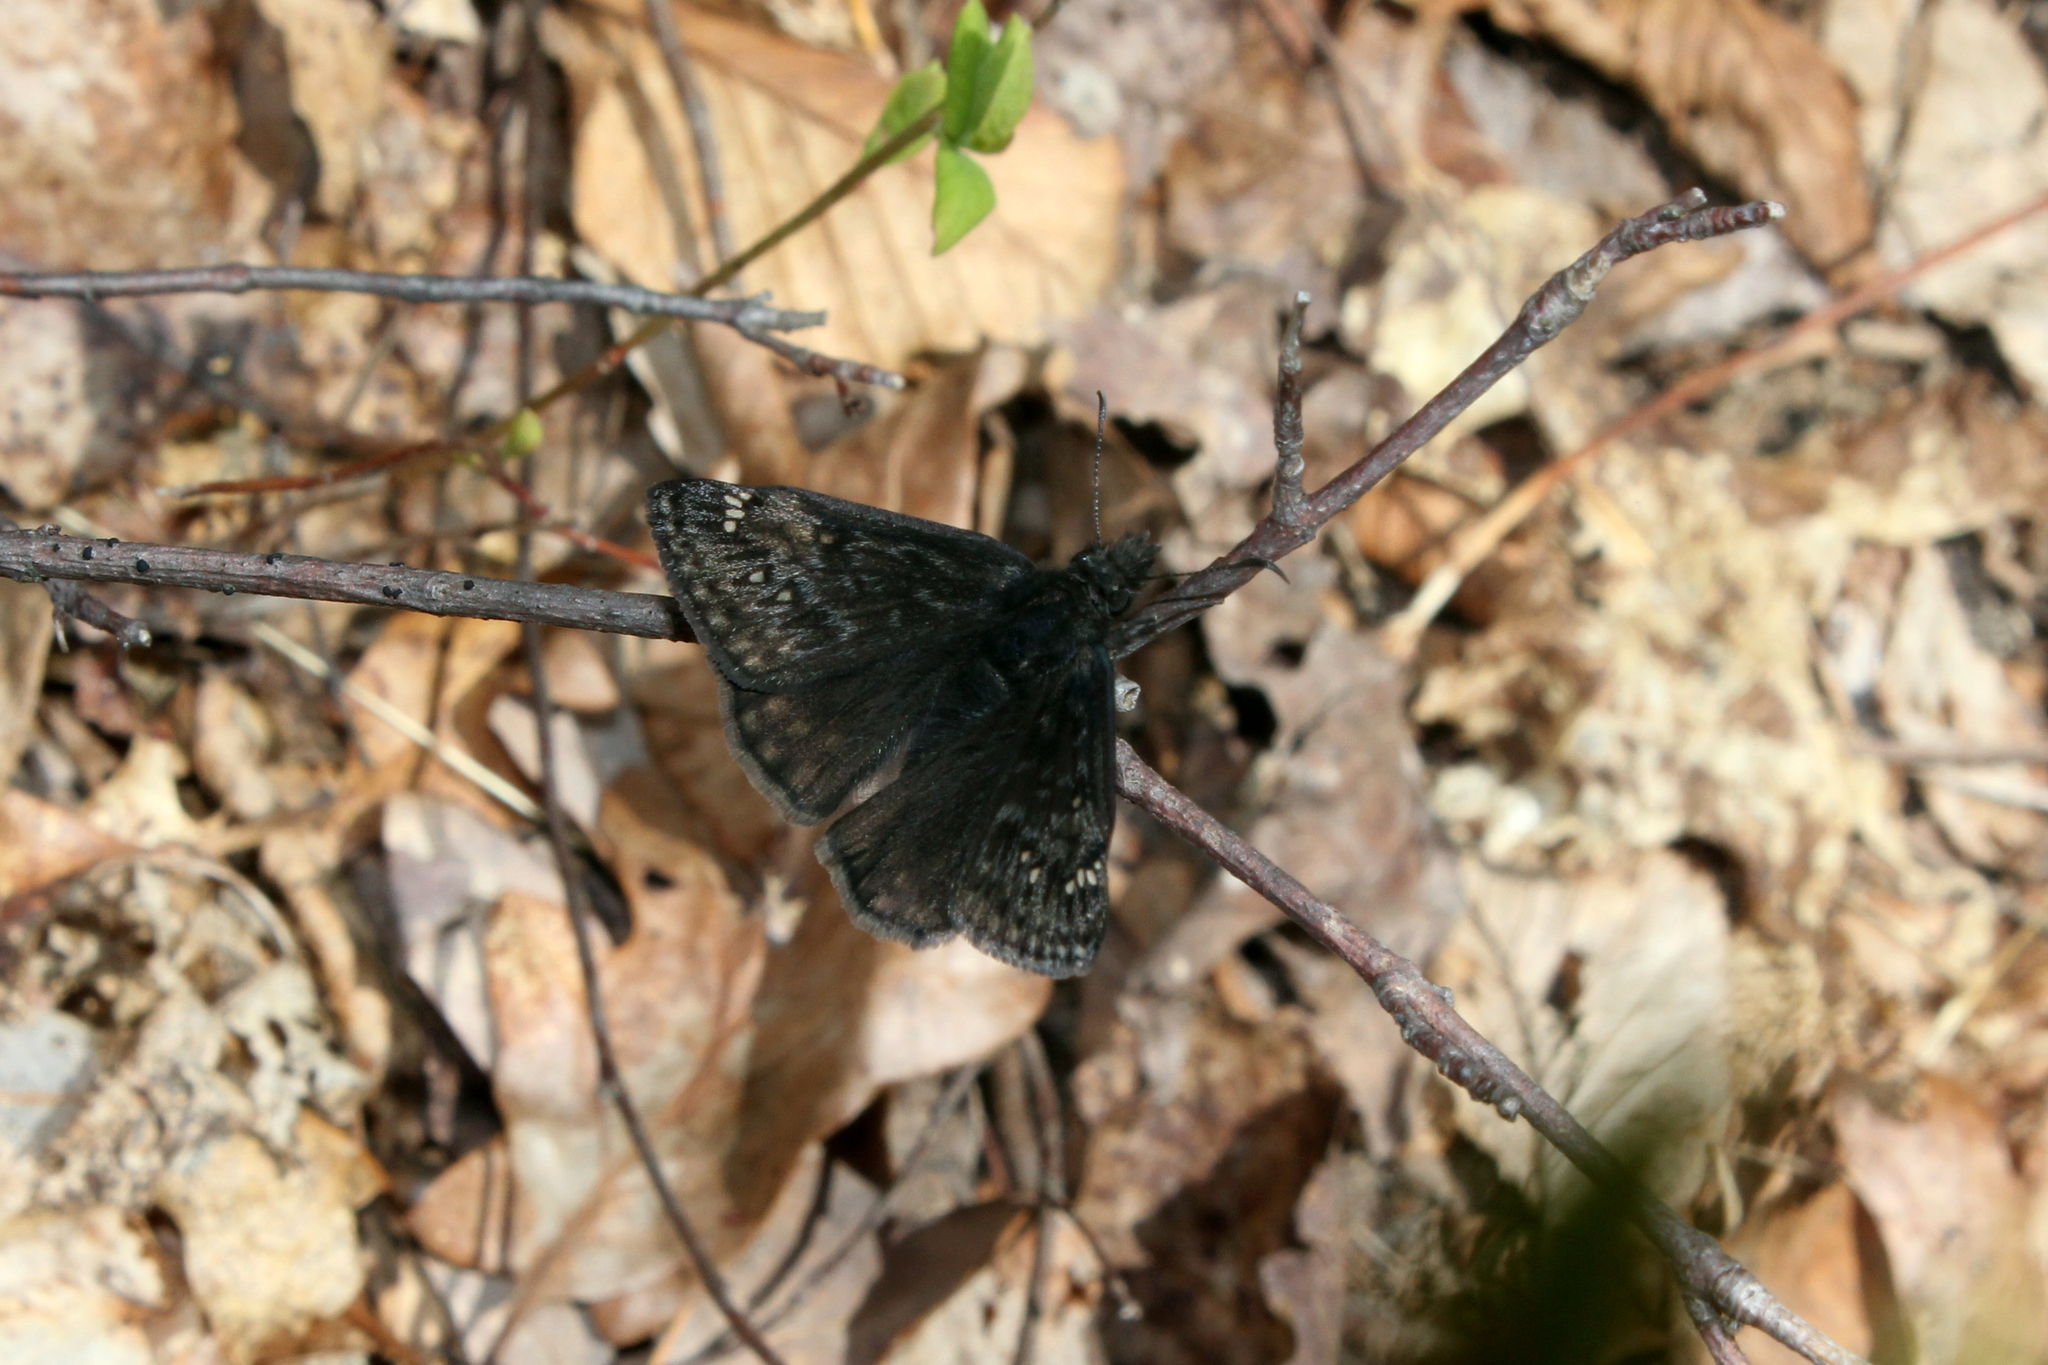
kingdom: Animalia
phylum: Arthropoda
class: Insecta
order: Lepidoptera
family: Hesperiidae
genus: Erynnis
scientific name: Erynnis juvenalis
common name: Juvenal's duskywing
